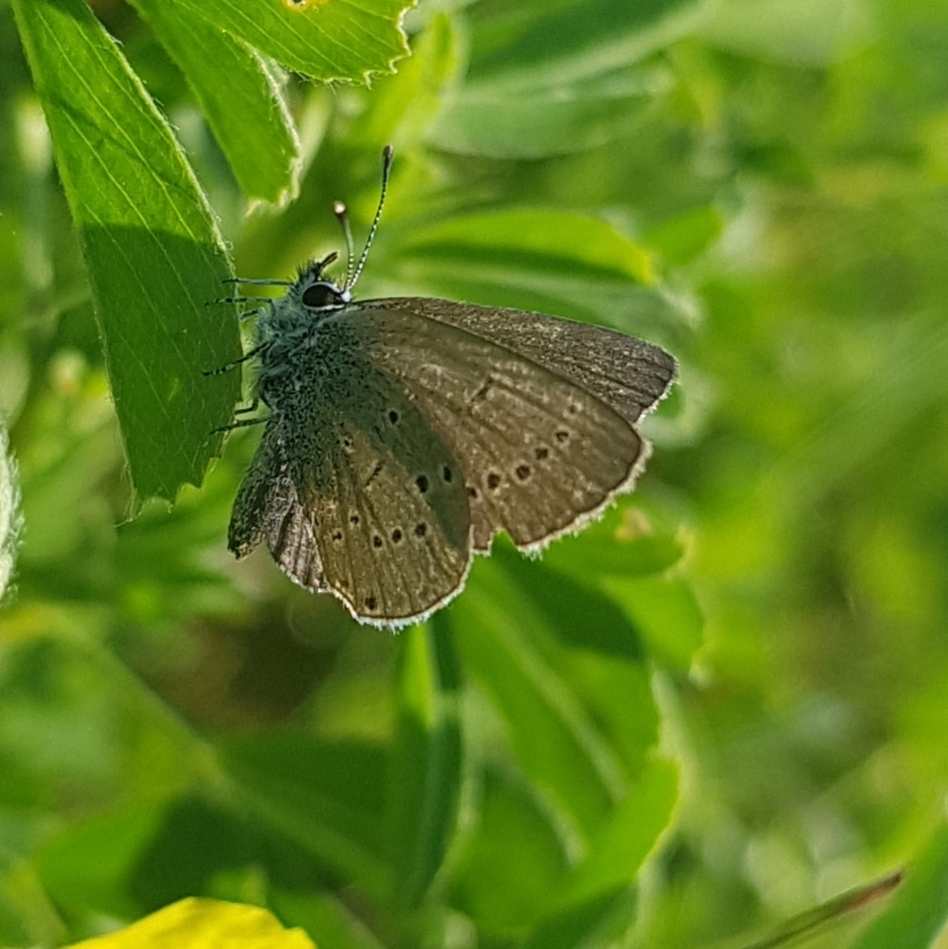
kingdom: Animalia
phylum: Arthropoda
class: Insecta
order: Lepidoptera
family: Lycaenidae
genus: Cupido
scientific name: Cupido minimus
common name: Small blue
